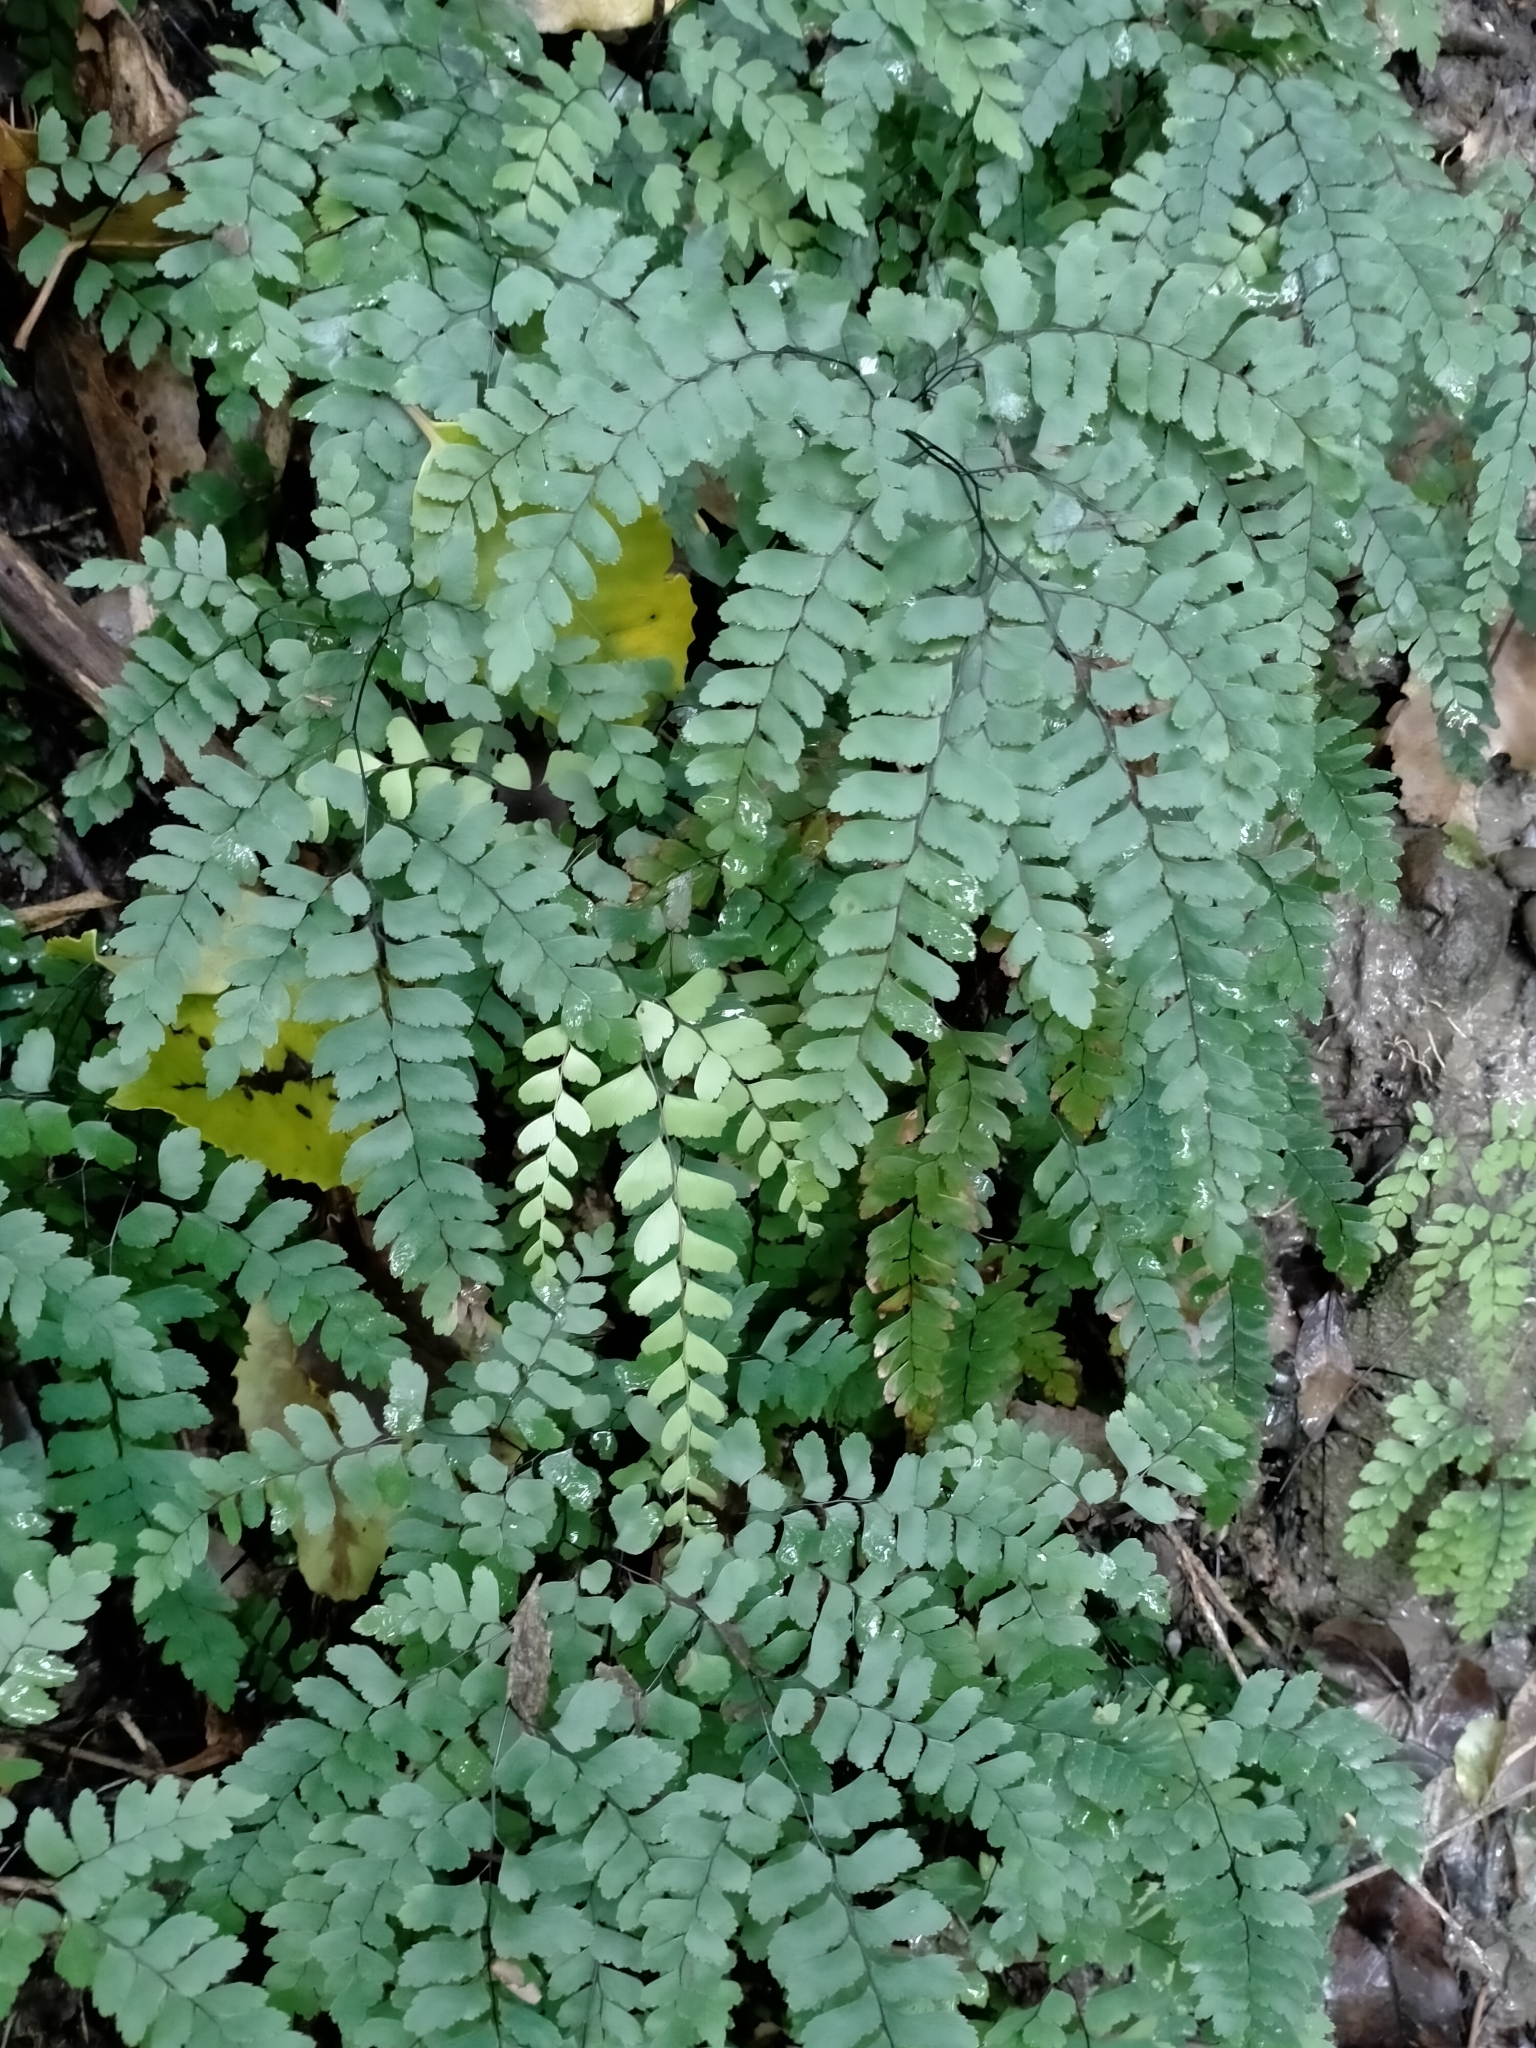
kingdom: Plantae
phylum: Tracheophyta
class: Polypodiopsida
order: Polypodiales
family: Pteridaceae
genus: Adiantum
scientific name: Adiantum cunninghamii
